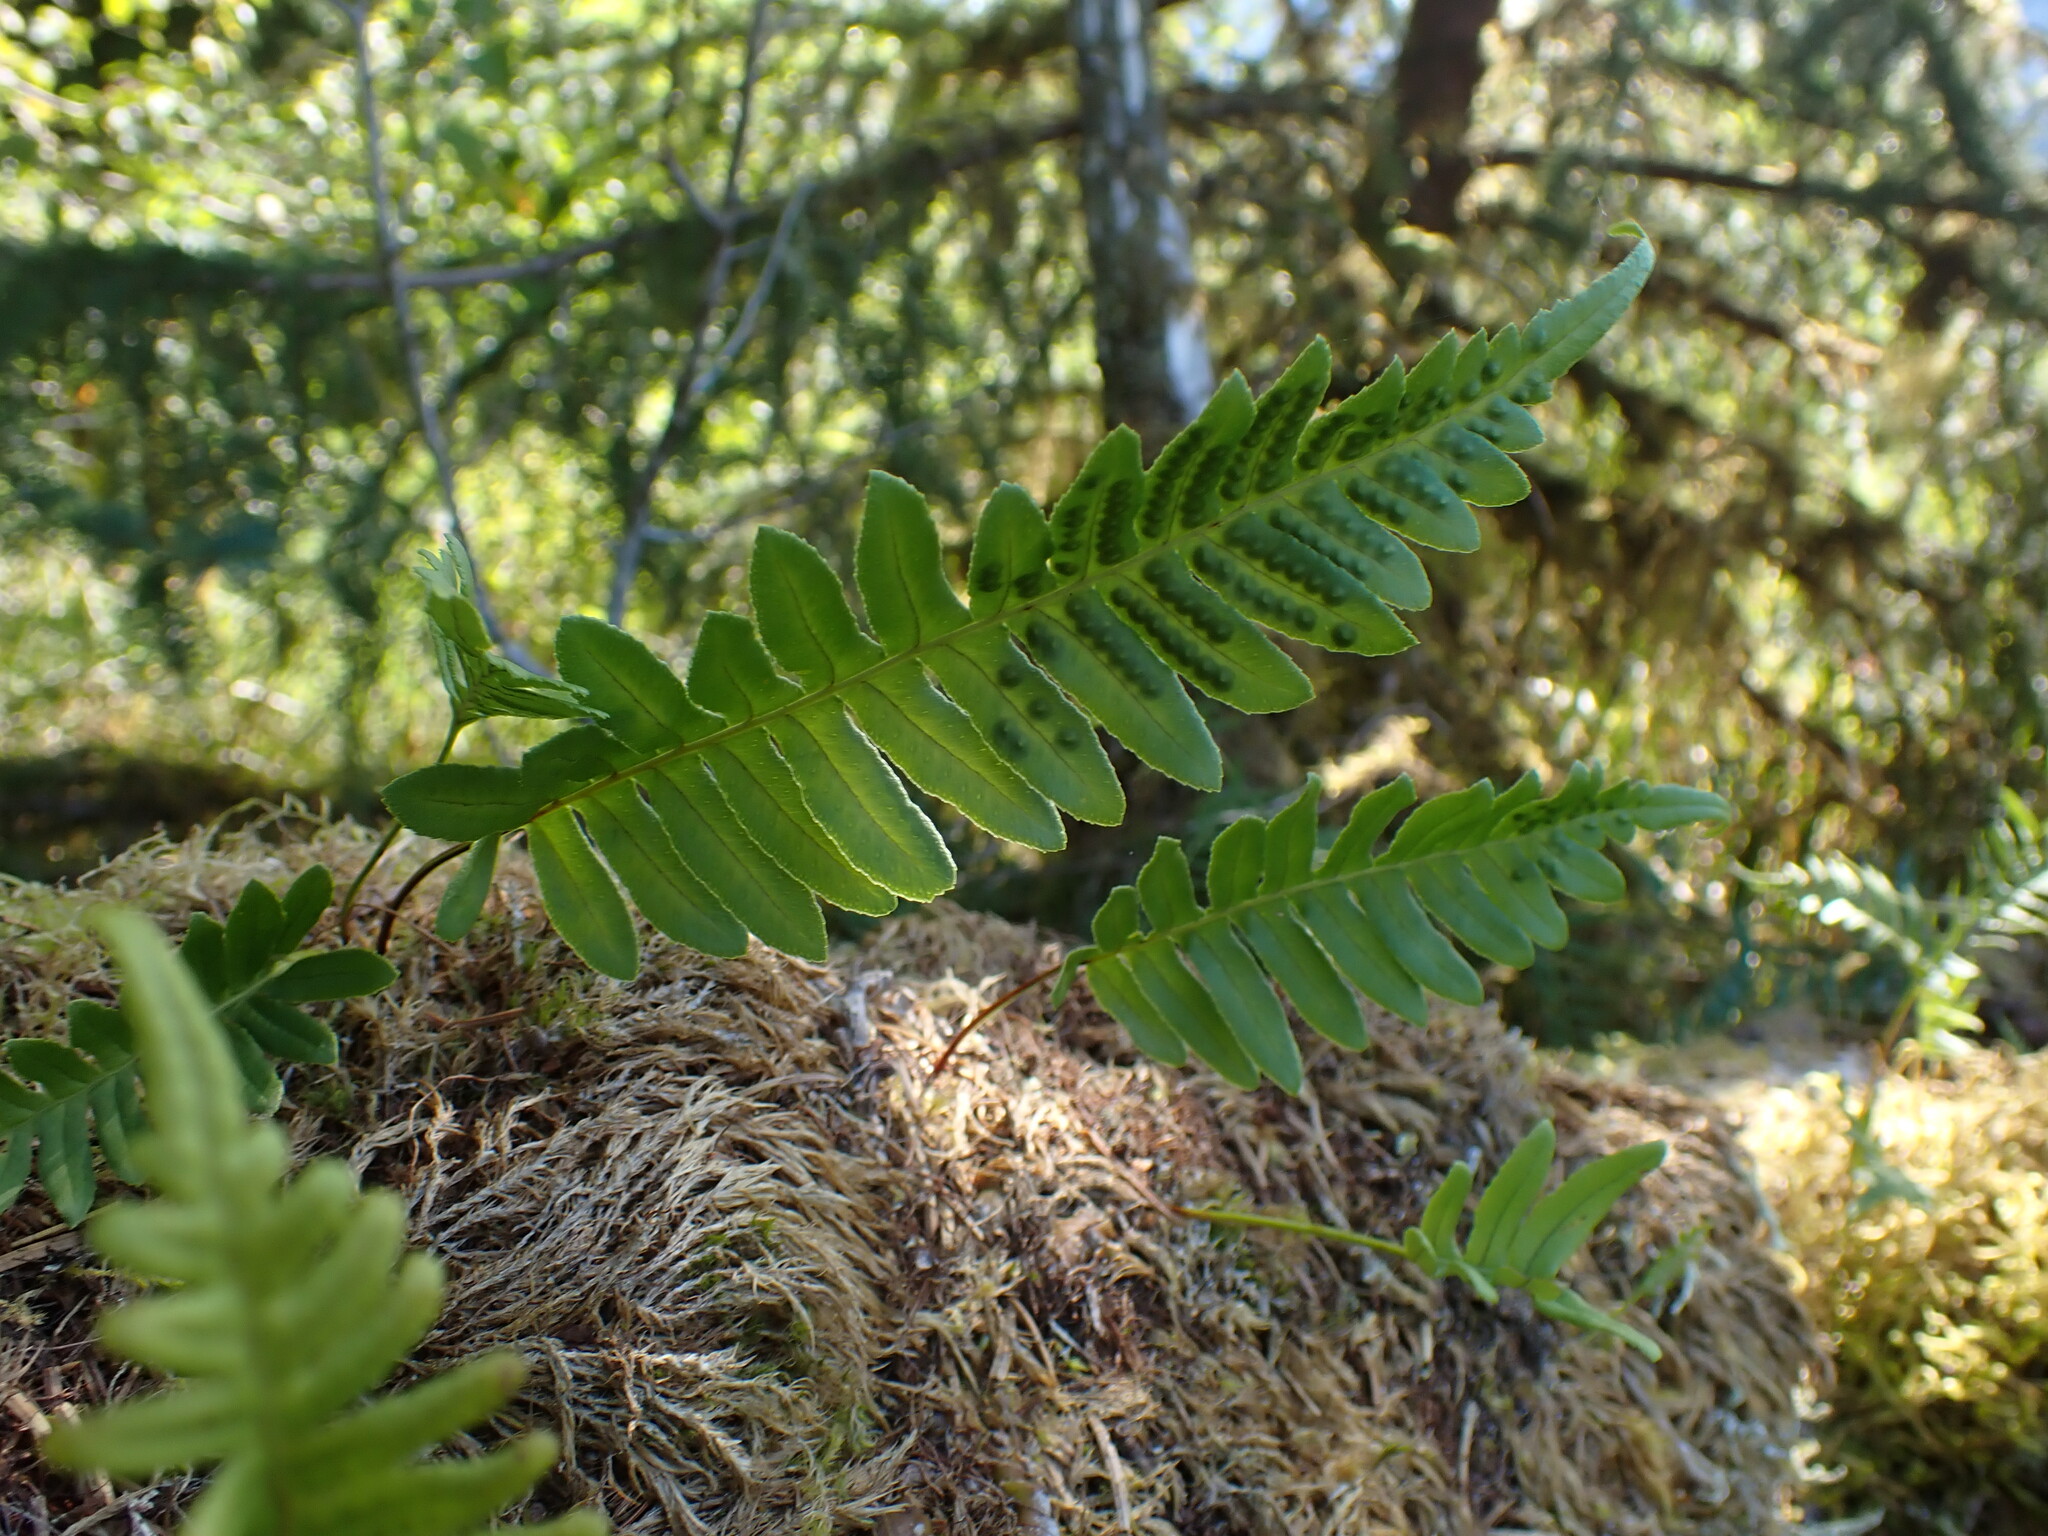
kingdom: Plantae
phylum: Tracheophyta
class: Polypodiopsida
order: Polypodiales
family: Polypodiaceae
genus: Polypodium
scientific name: Polypodium glycyrrhiza
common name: Licorice fern
